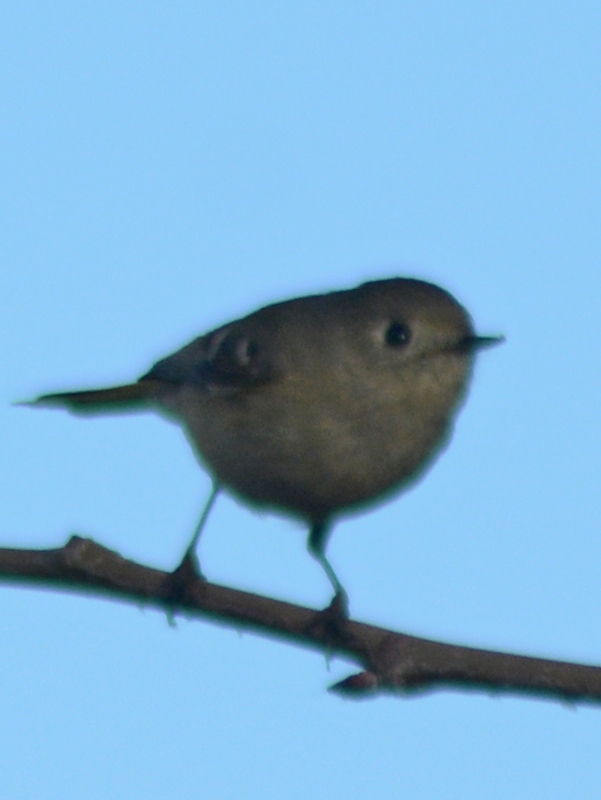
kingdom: Animalia
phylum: Chordata
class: Aves
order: Passeriformes
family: Regulidae
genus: Regulus
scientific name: Regulus calendula
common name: Ruby-crowned kinglet
